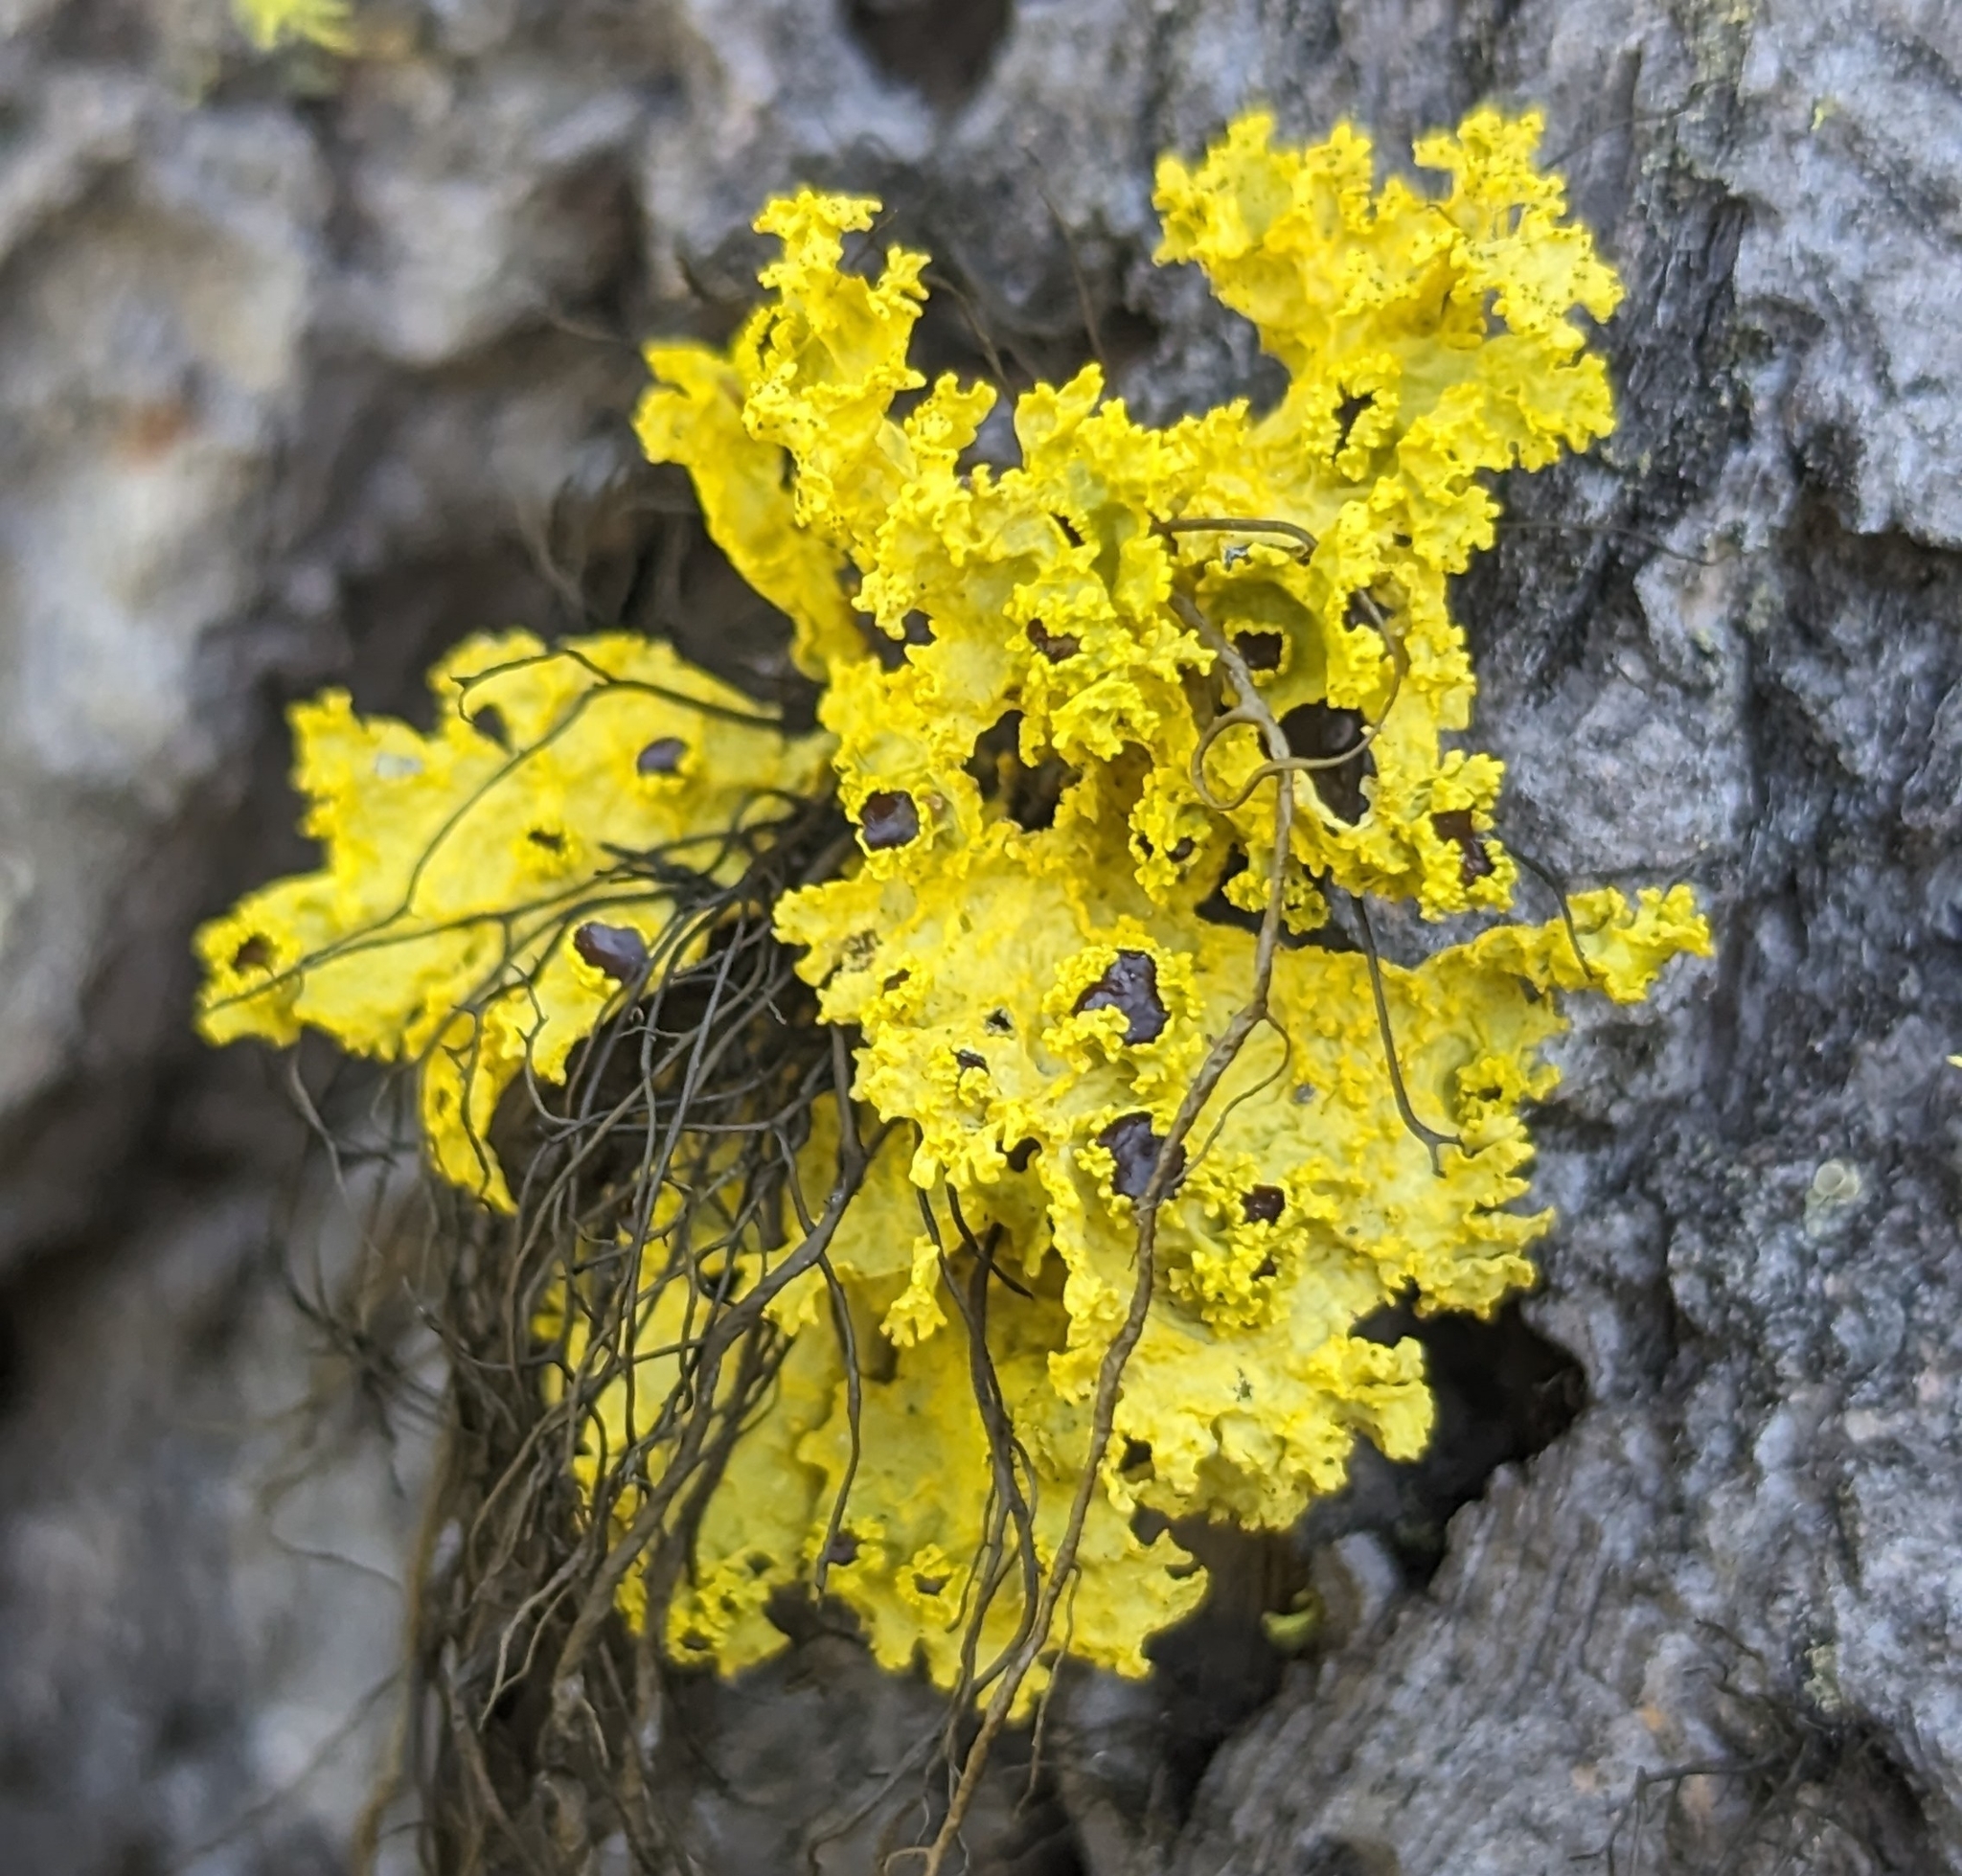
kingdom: Fungi
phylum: Ascomycota
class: Lecanoromycetes
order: Lecanorales
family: Parmeliaceae
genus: Vulpicida
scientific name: Vulpicida canadensis
